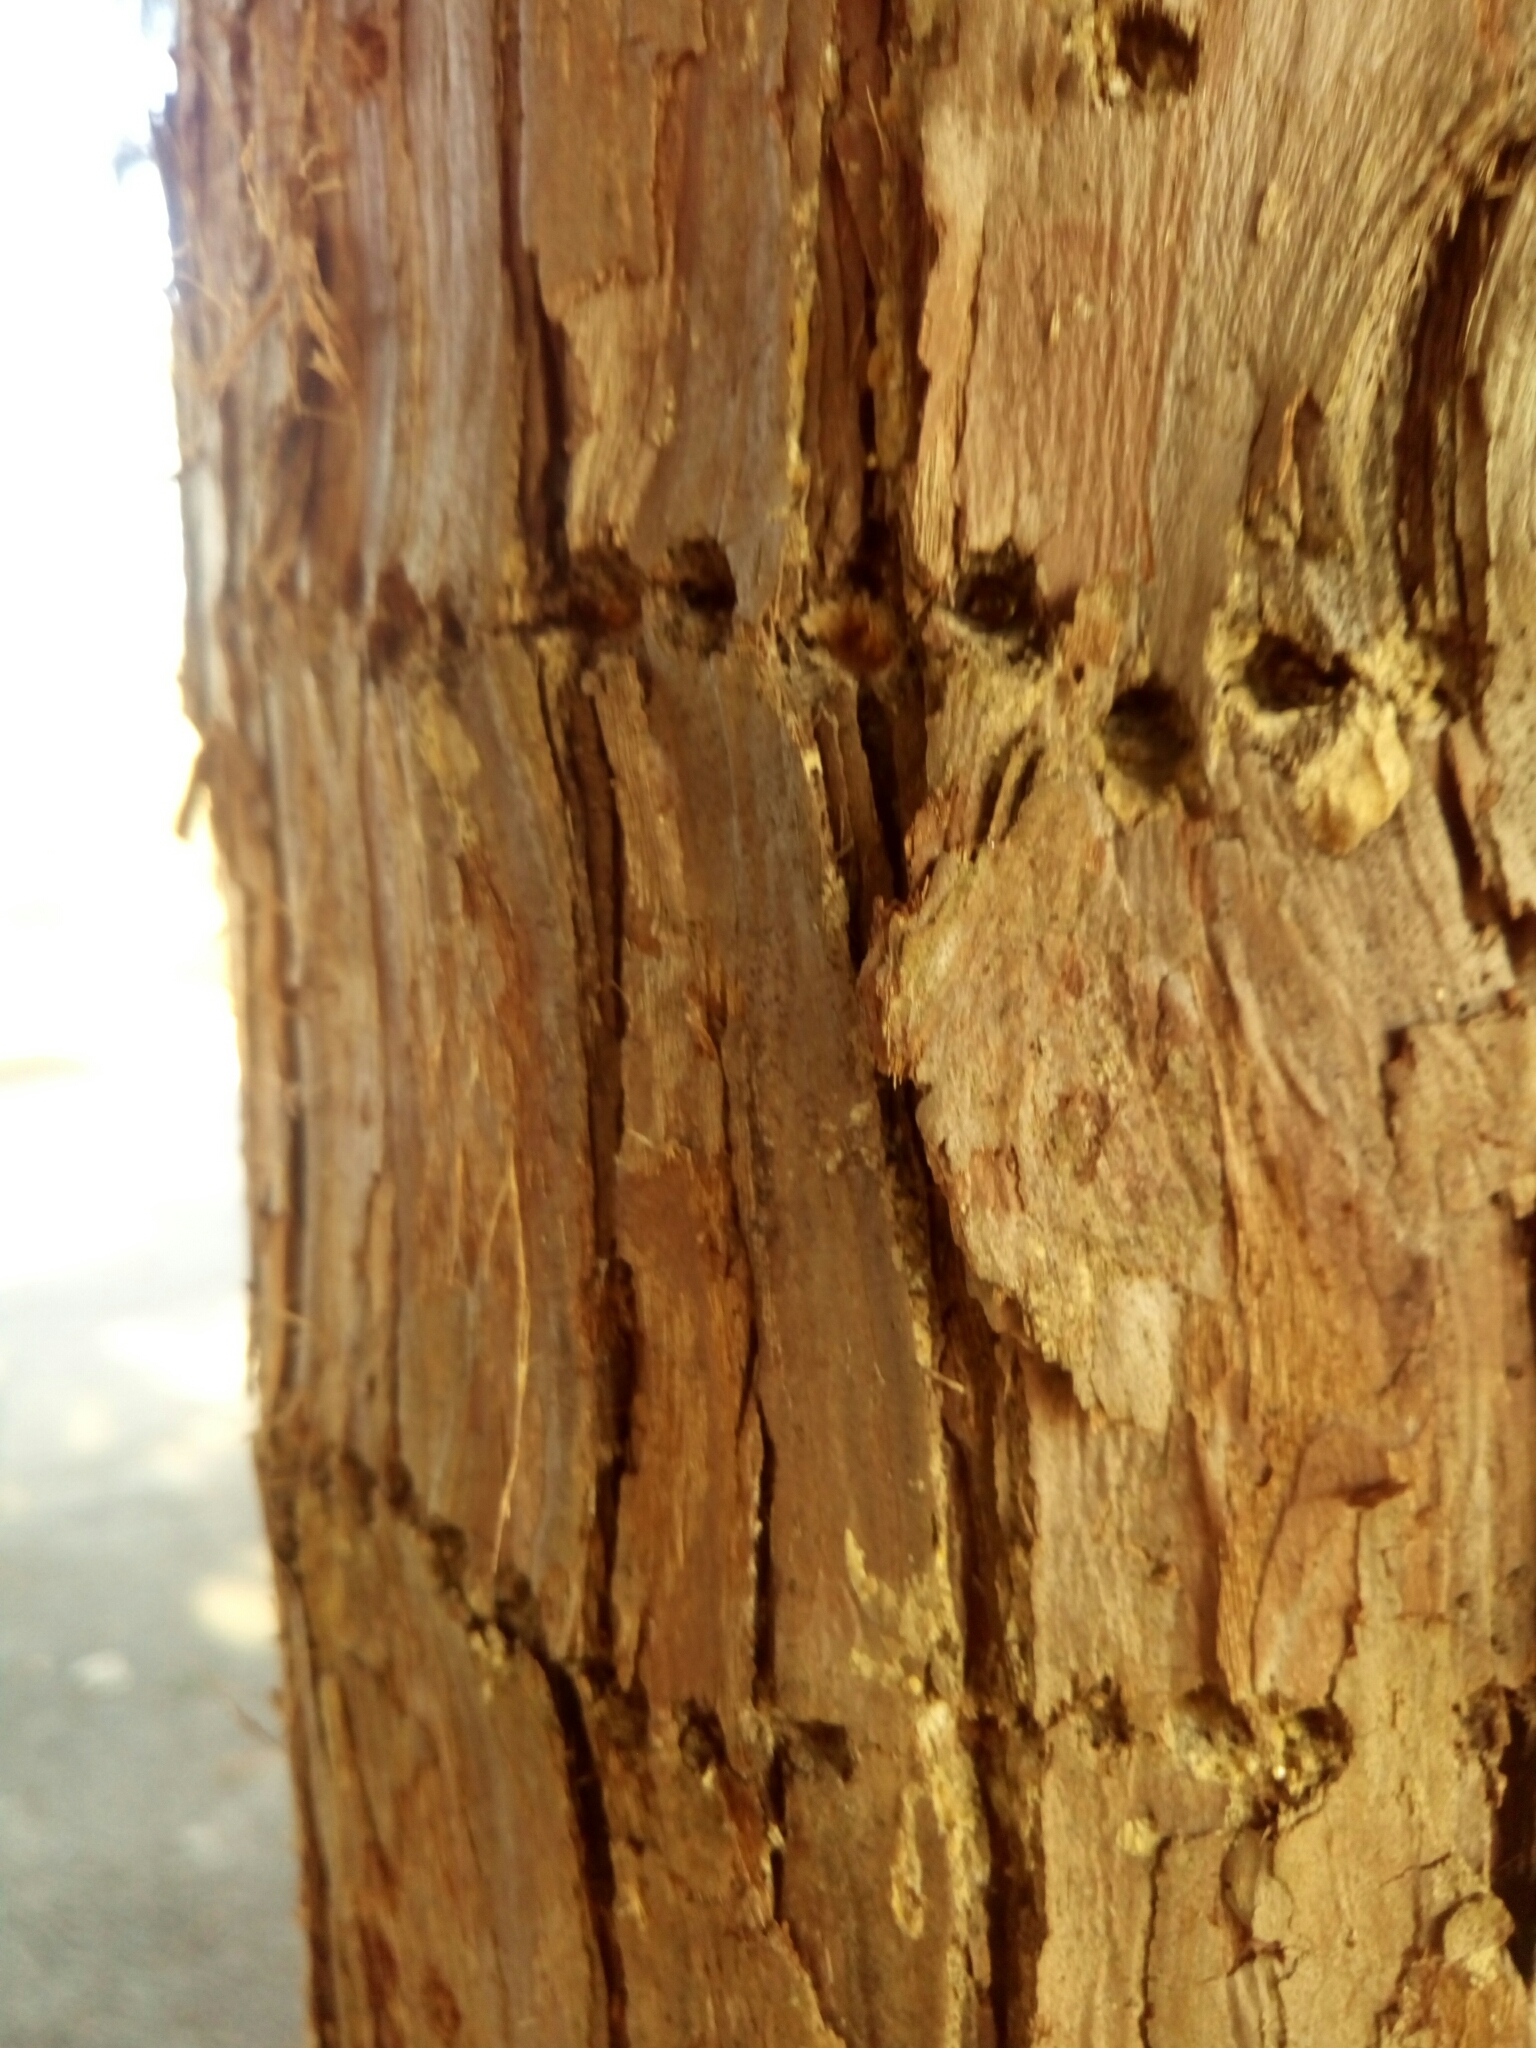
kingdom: Animalia
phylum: Chordata
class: Aves
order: Piciformes
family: Picidae
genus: Sphyrapicus
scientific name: Sphyrapicus varius
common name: Yellow-bellied sapsucker
